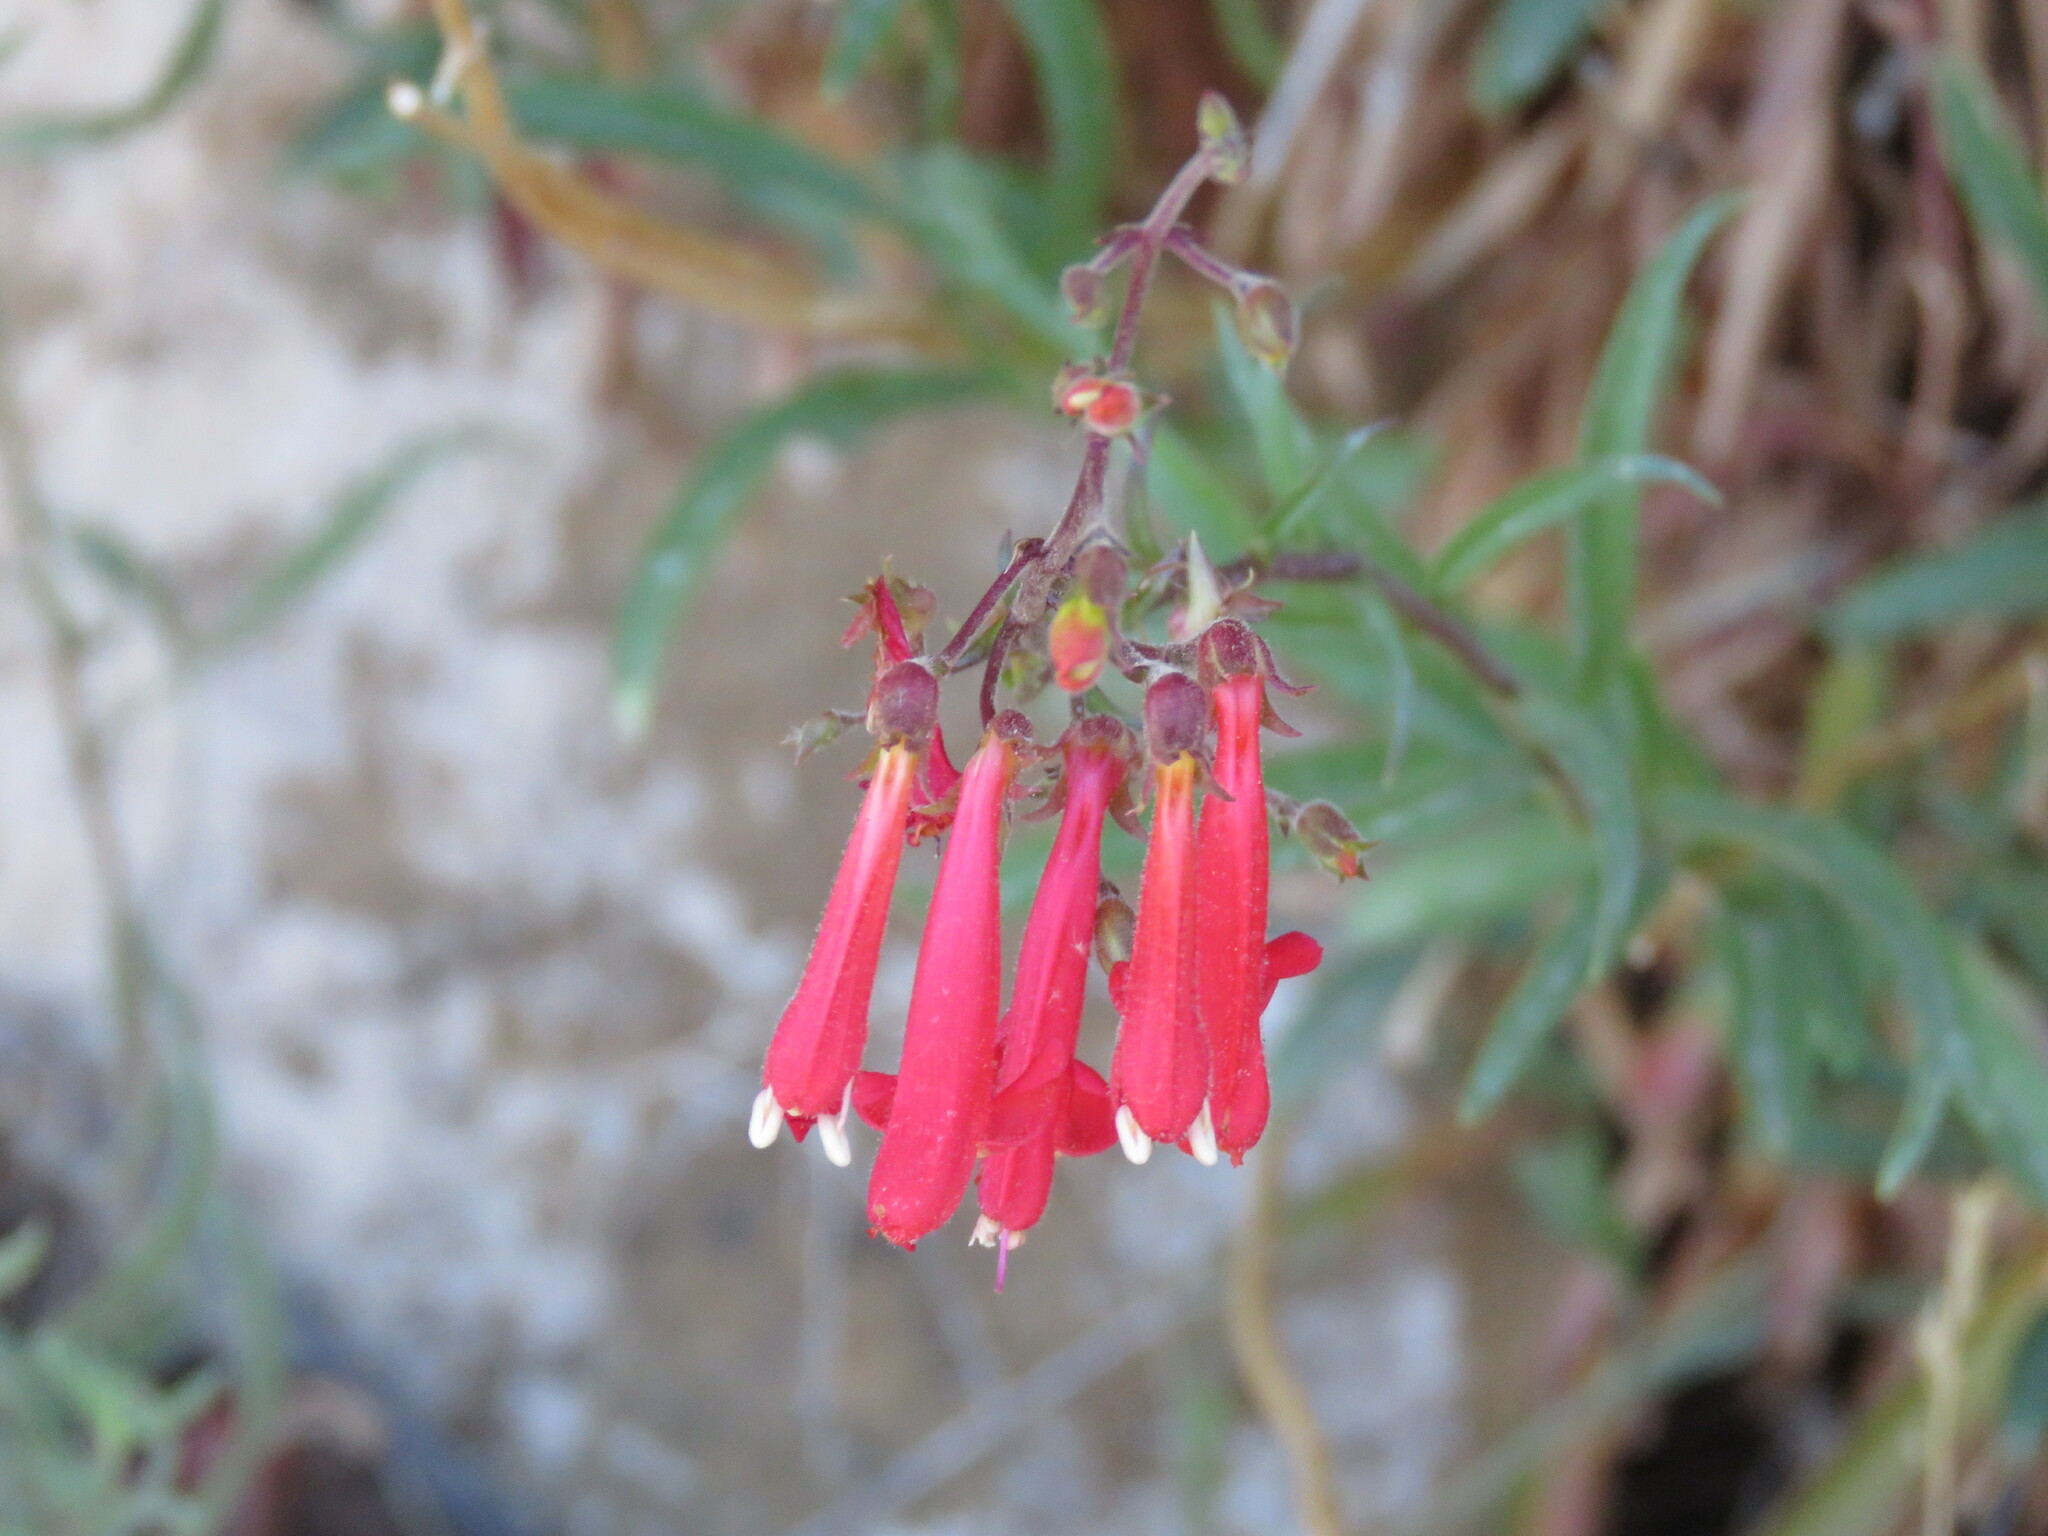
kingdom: Plantae
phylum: Tracheophyta
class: Magnoliopsida
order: Lamiales
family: Plantaginaceae
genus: Penstemon
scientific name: Penstemon rostriflorus
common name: Bridges's penstemon
